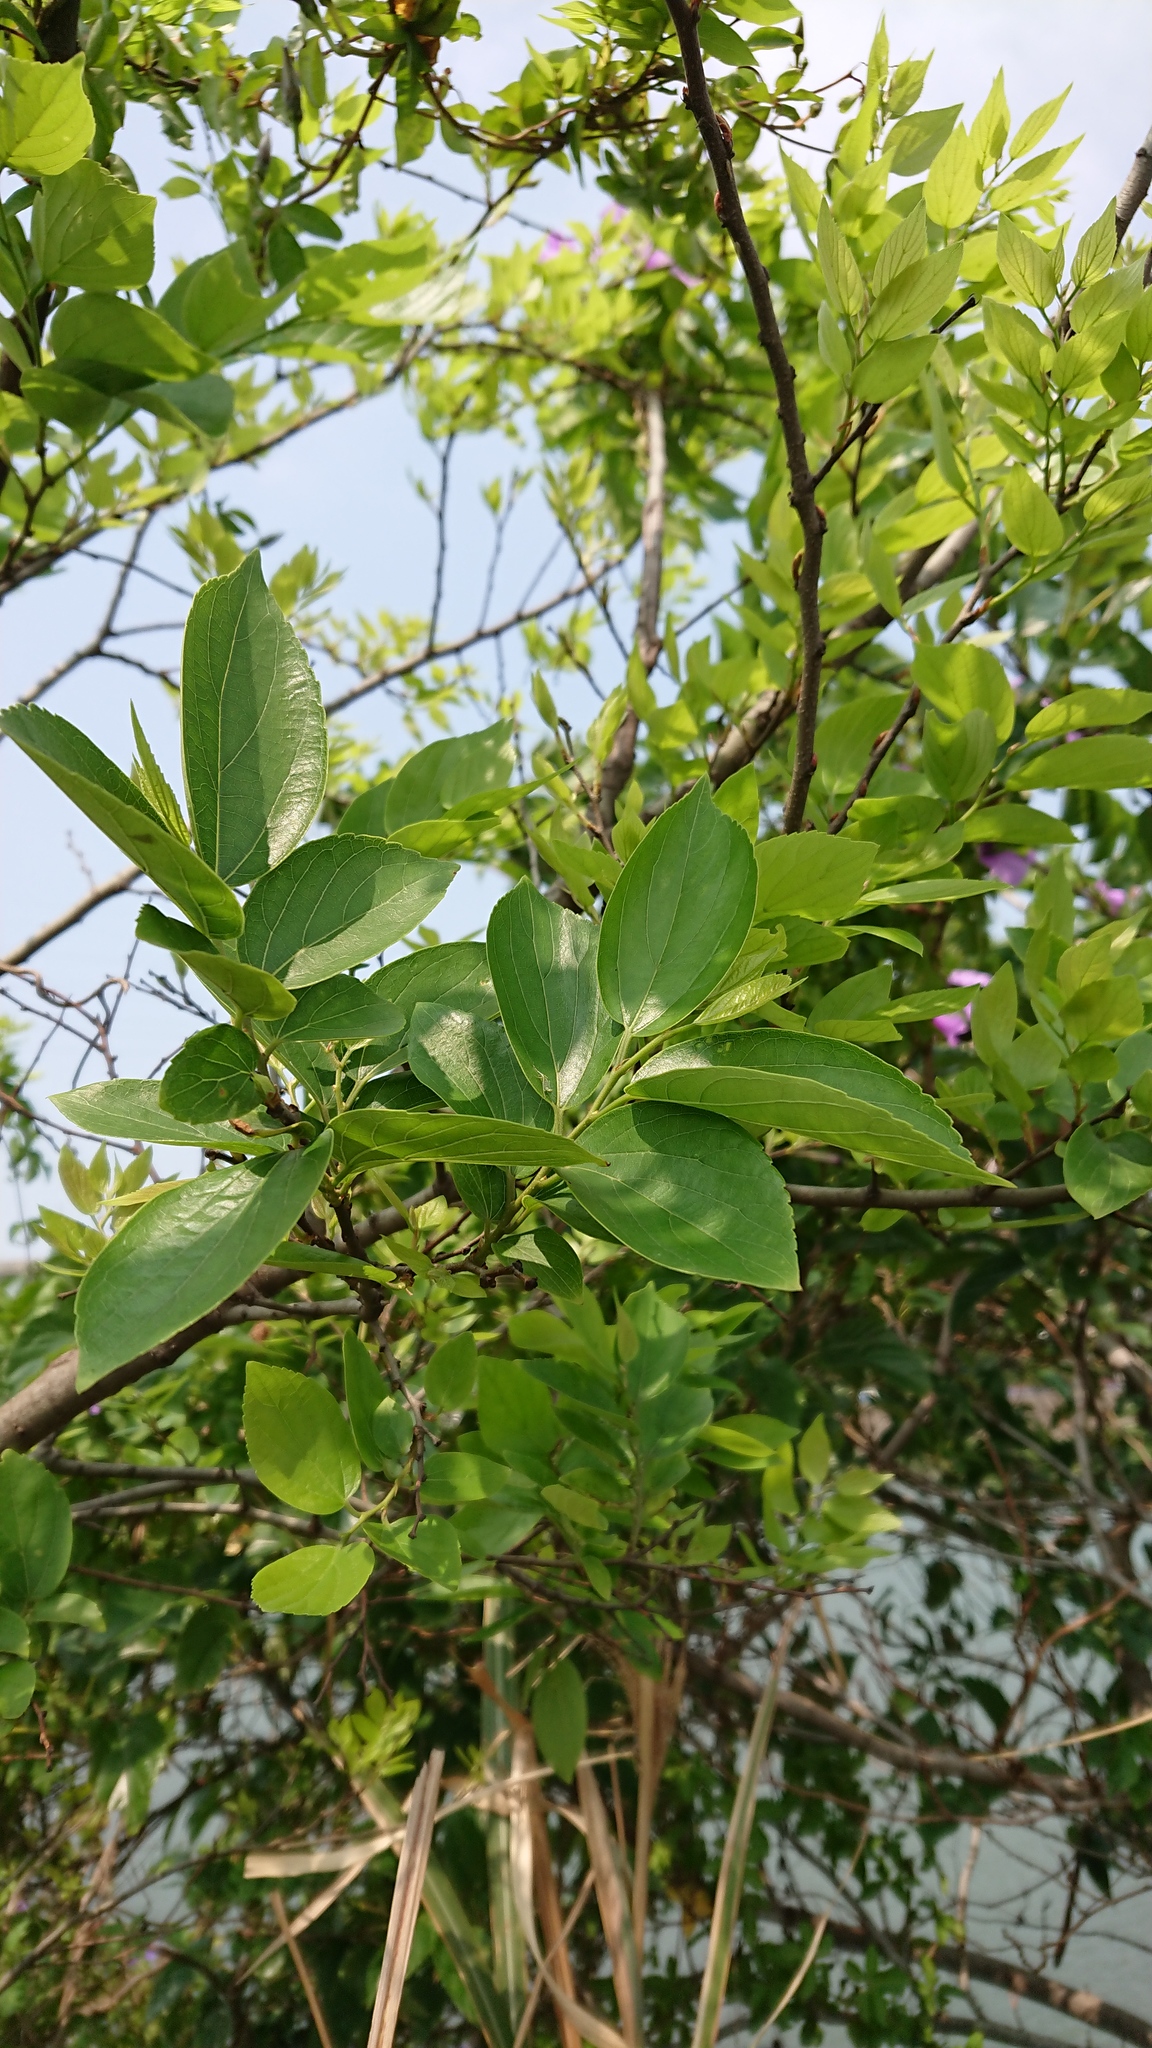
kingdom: Plantae
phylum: Tracheophyta
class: Magnoliopsida
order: Rosales
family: Cannabaceae
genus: Celtis
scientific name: Celtis sinensis
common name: Chinese hackberry
